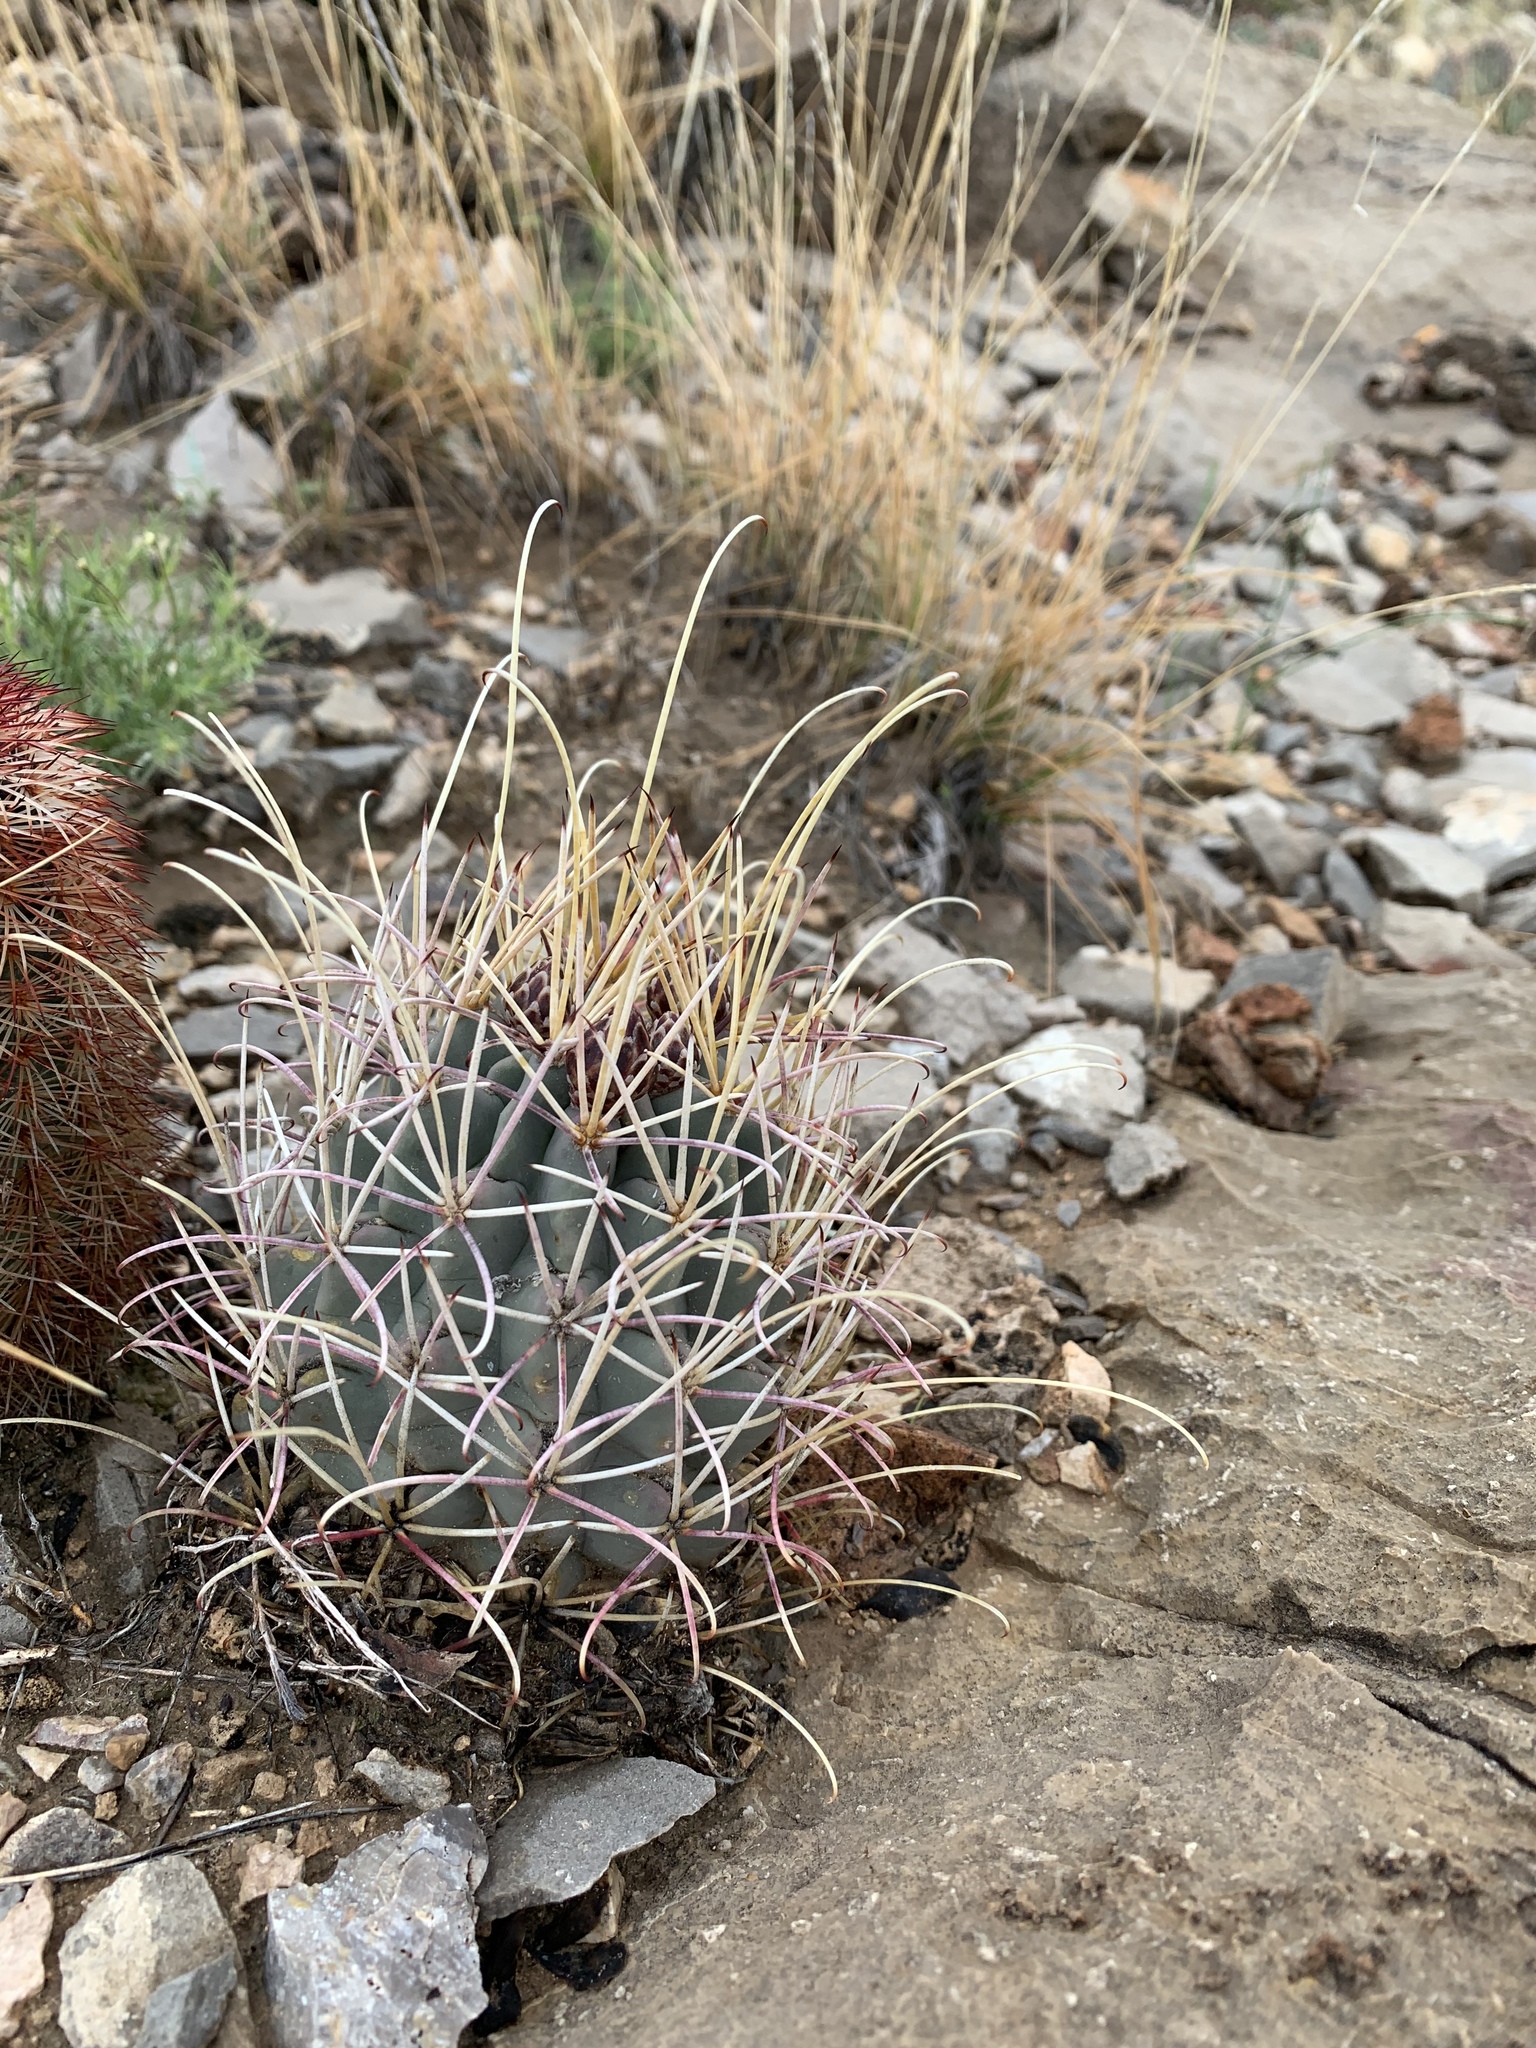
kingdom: Plantae
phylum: Tracheophyta
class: Magnoliopsida
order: Caryophyllales
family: Cactaceae
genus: Ferocactus
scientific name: Ferocactus uncinatus
